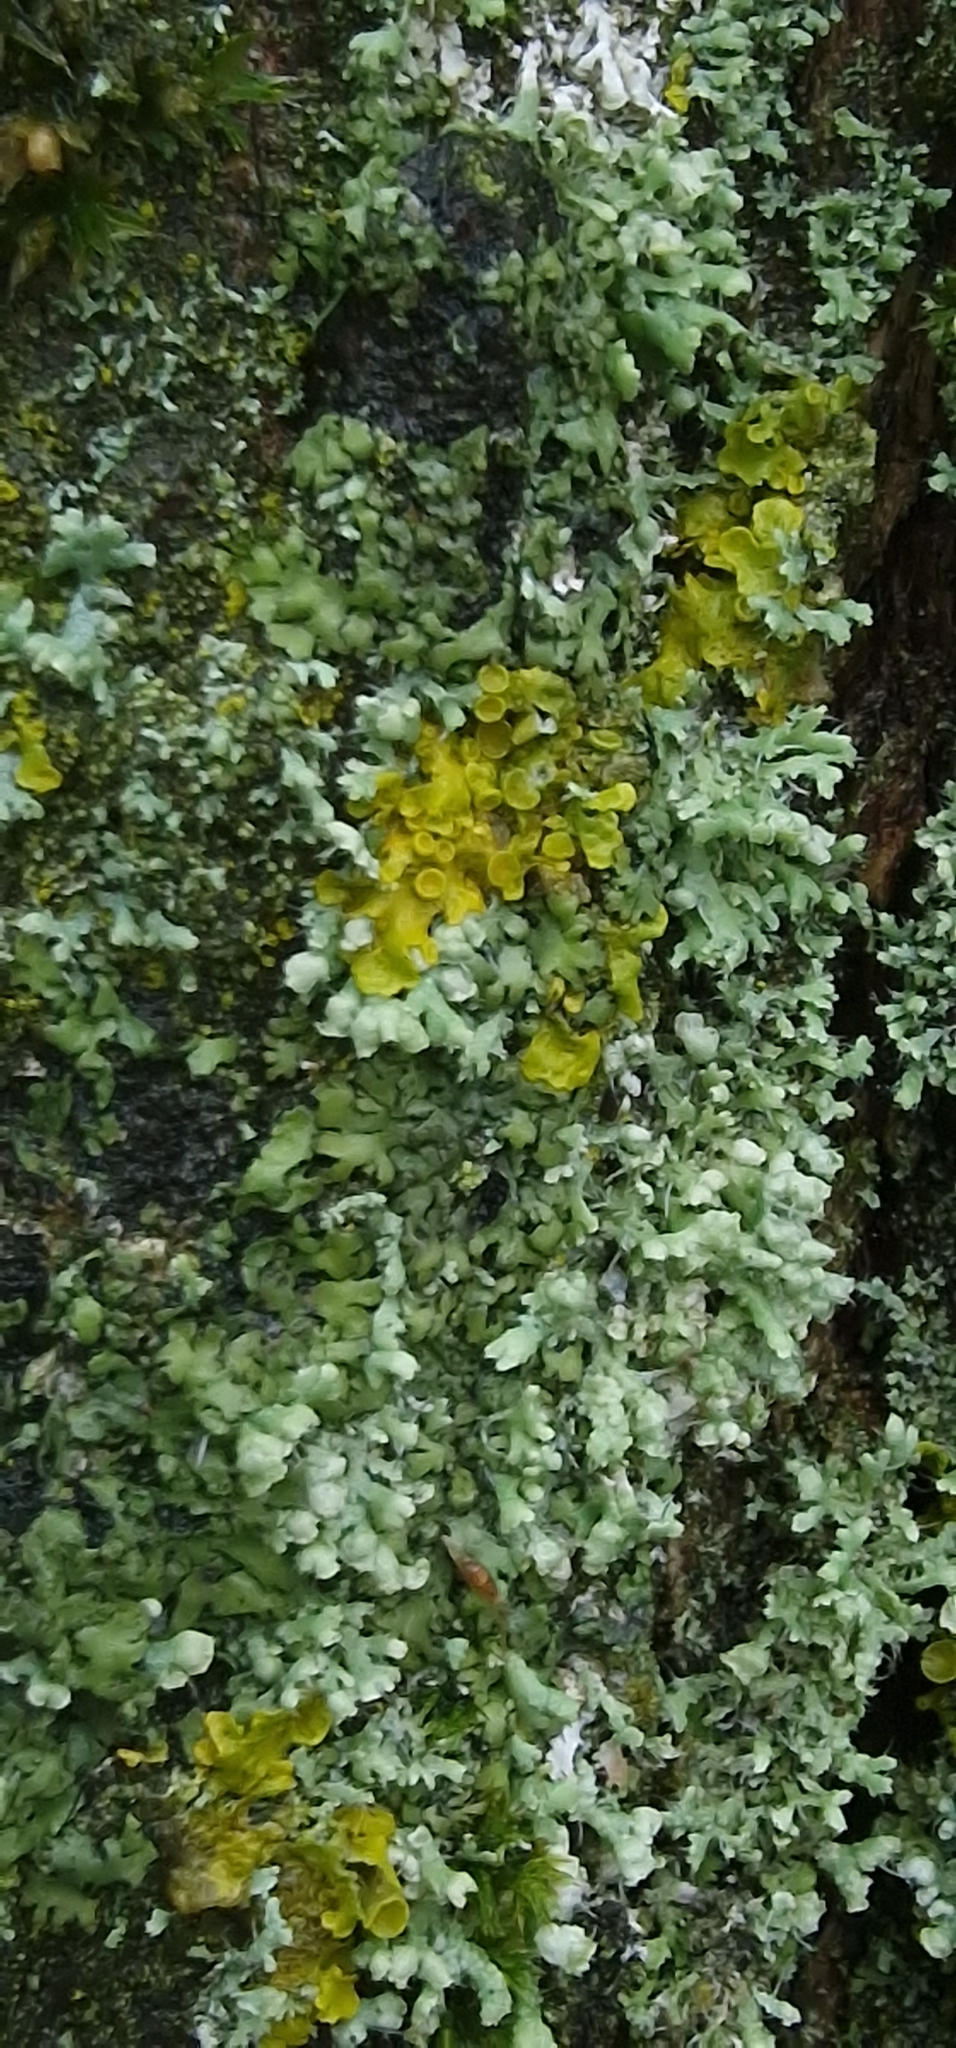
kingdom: Fungi
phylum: Ascomycota
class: Lecanoromycetes
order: Caliciales
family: Physciaceae
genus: Physcia
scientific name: Physcia adscendens
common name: Hooded rosette lichen
